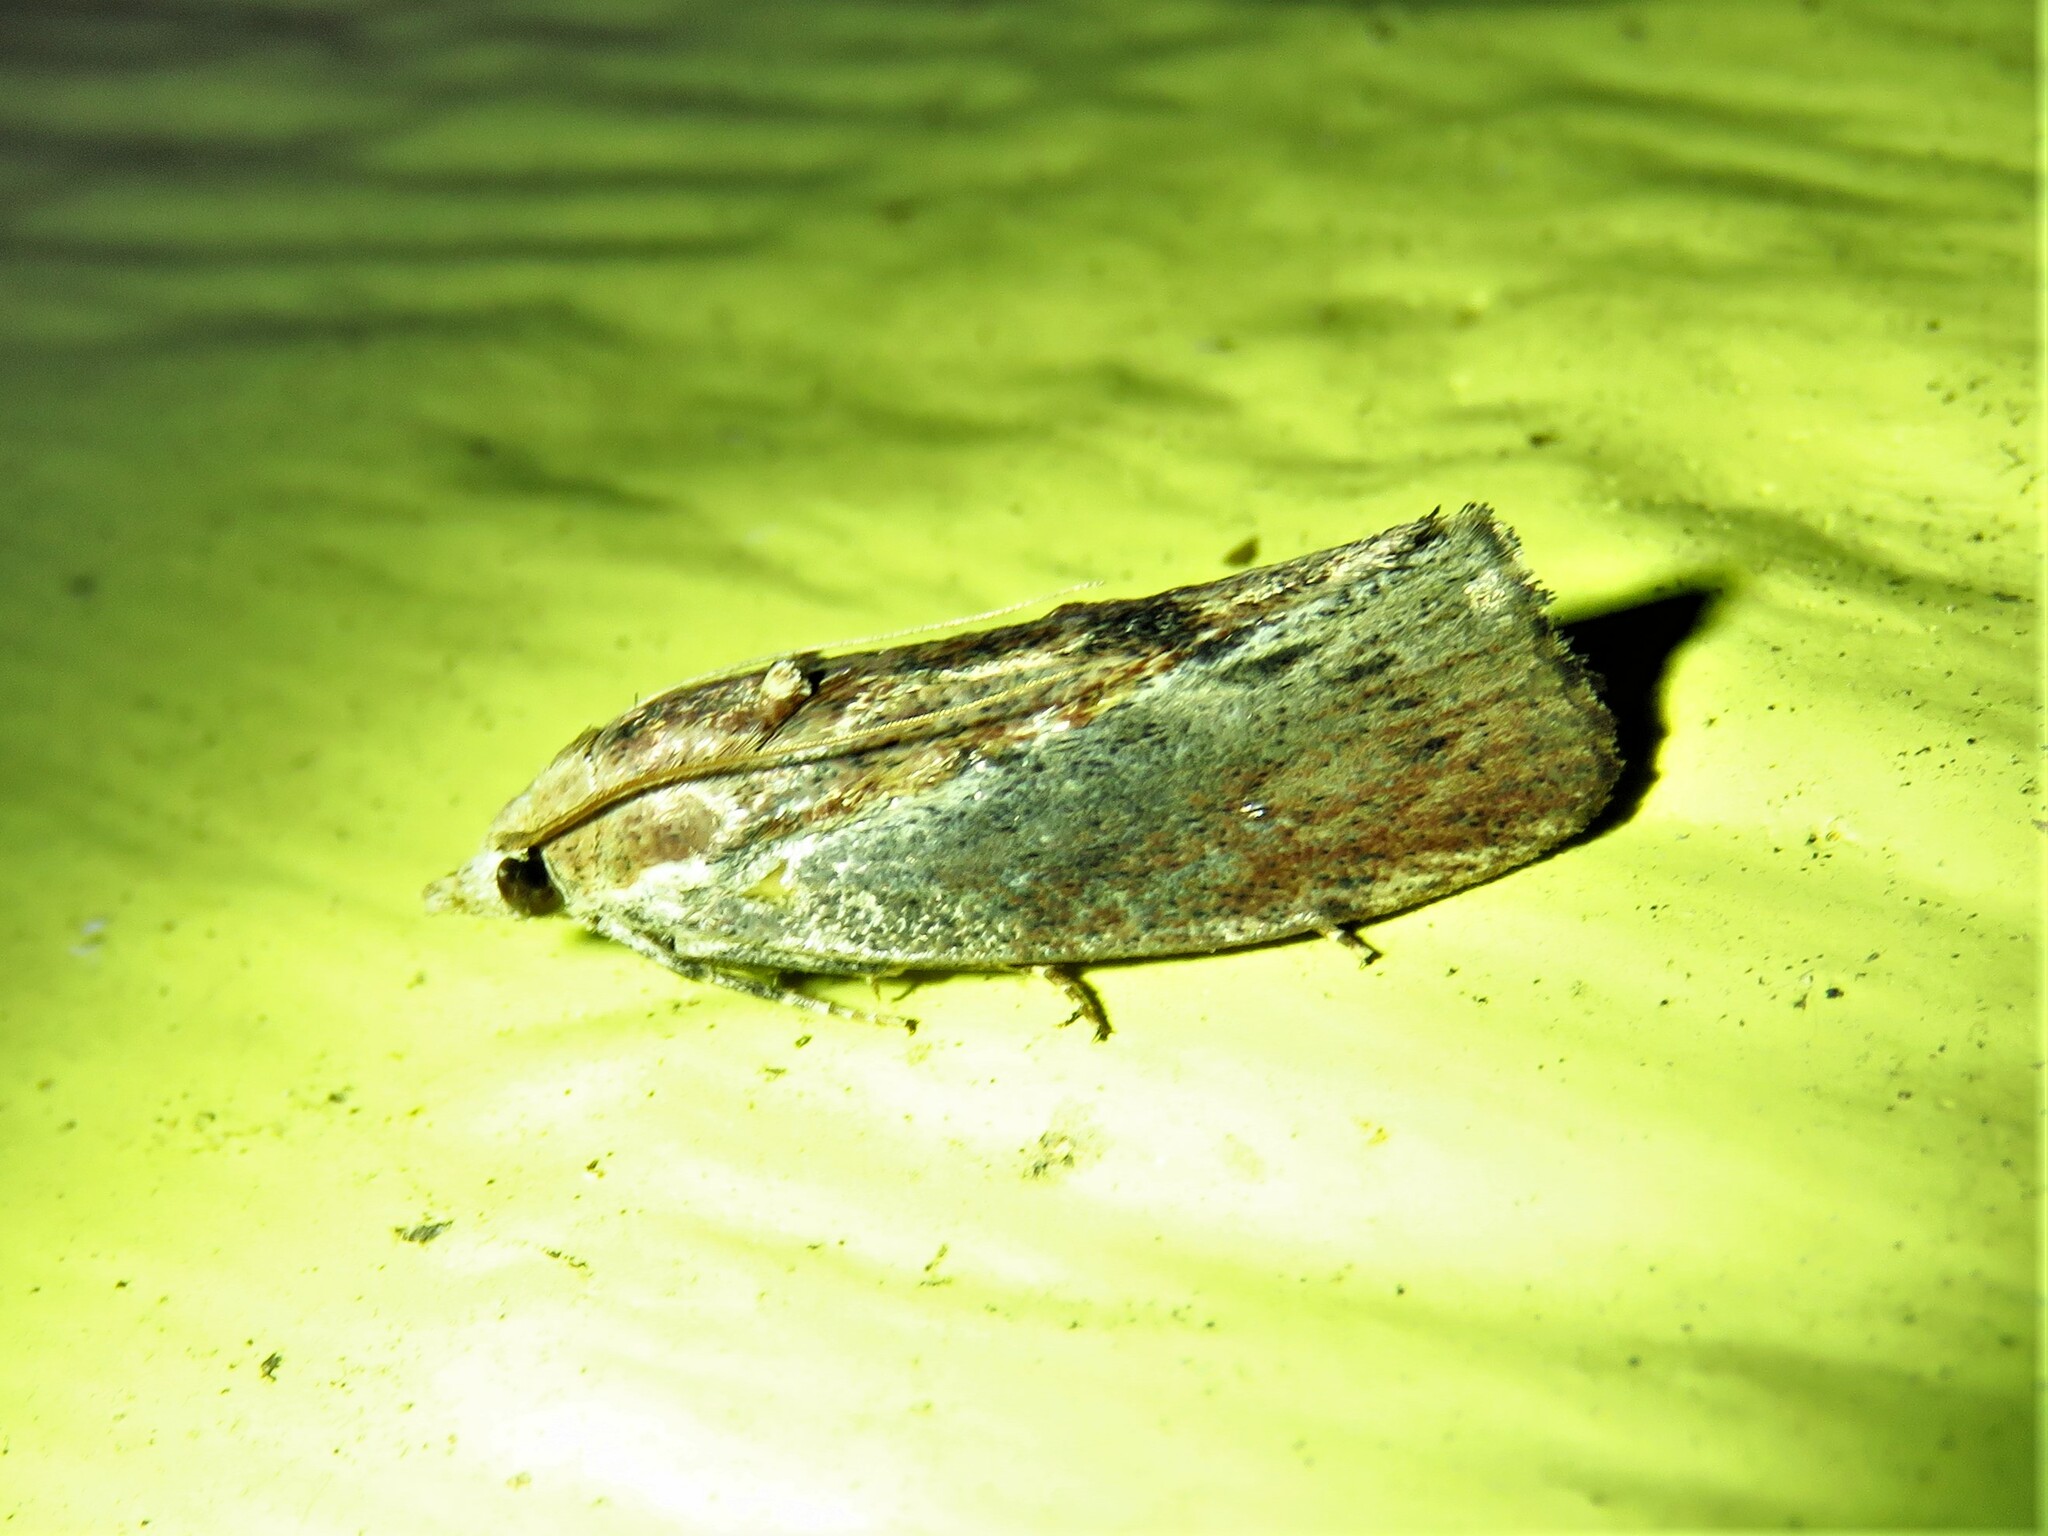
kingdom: Animalia
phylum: Arthropoda
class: Insecta
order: Lepidoptera
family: Pyralidae
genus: Galleria
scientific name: Galleria mellonella
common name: Greater wax moth
